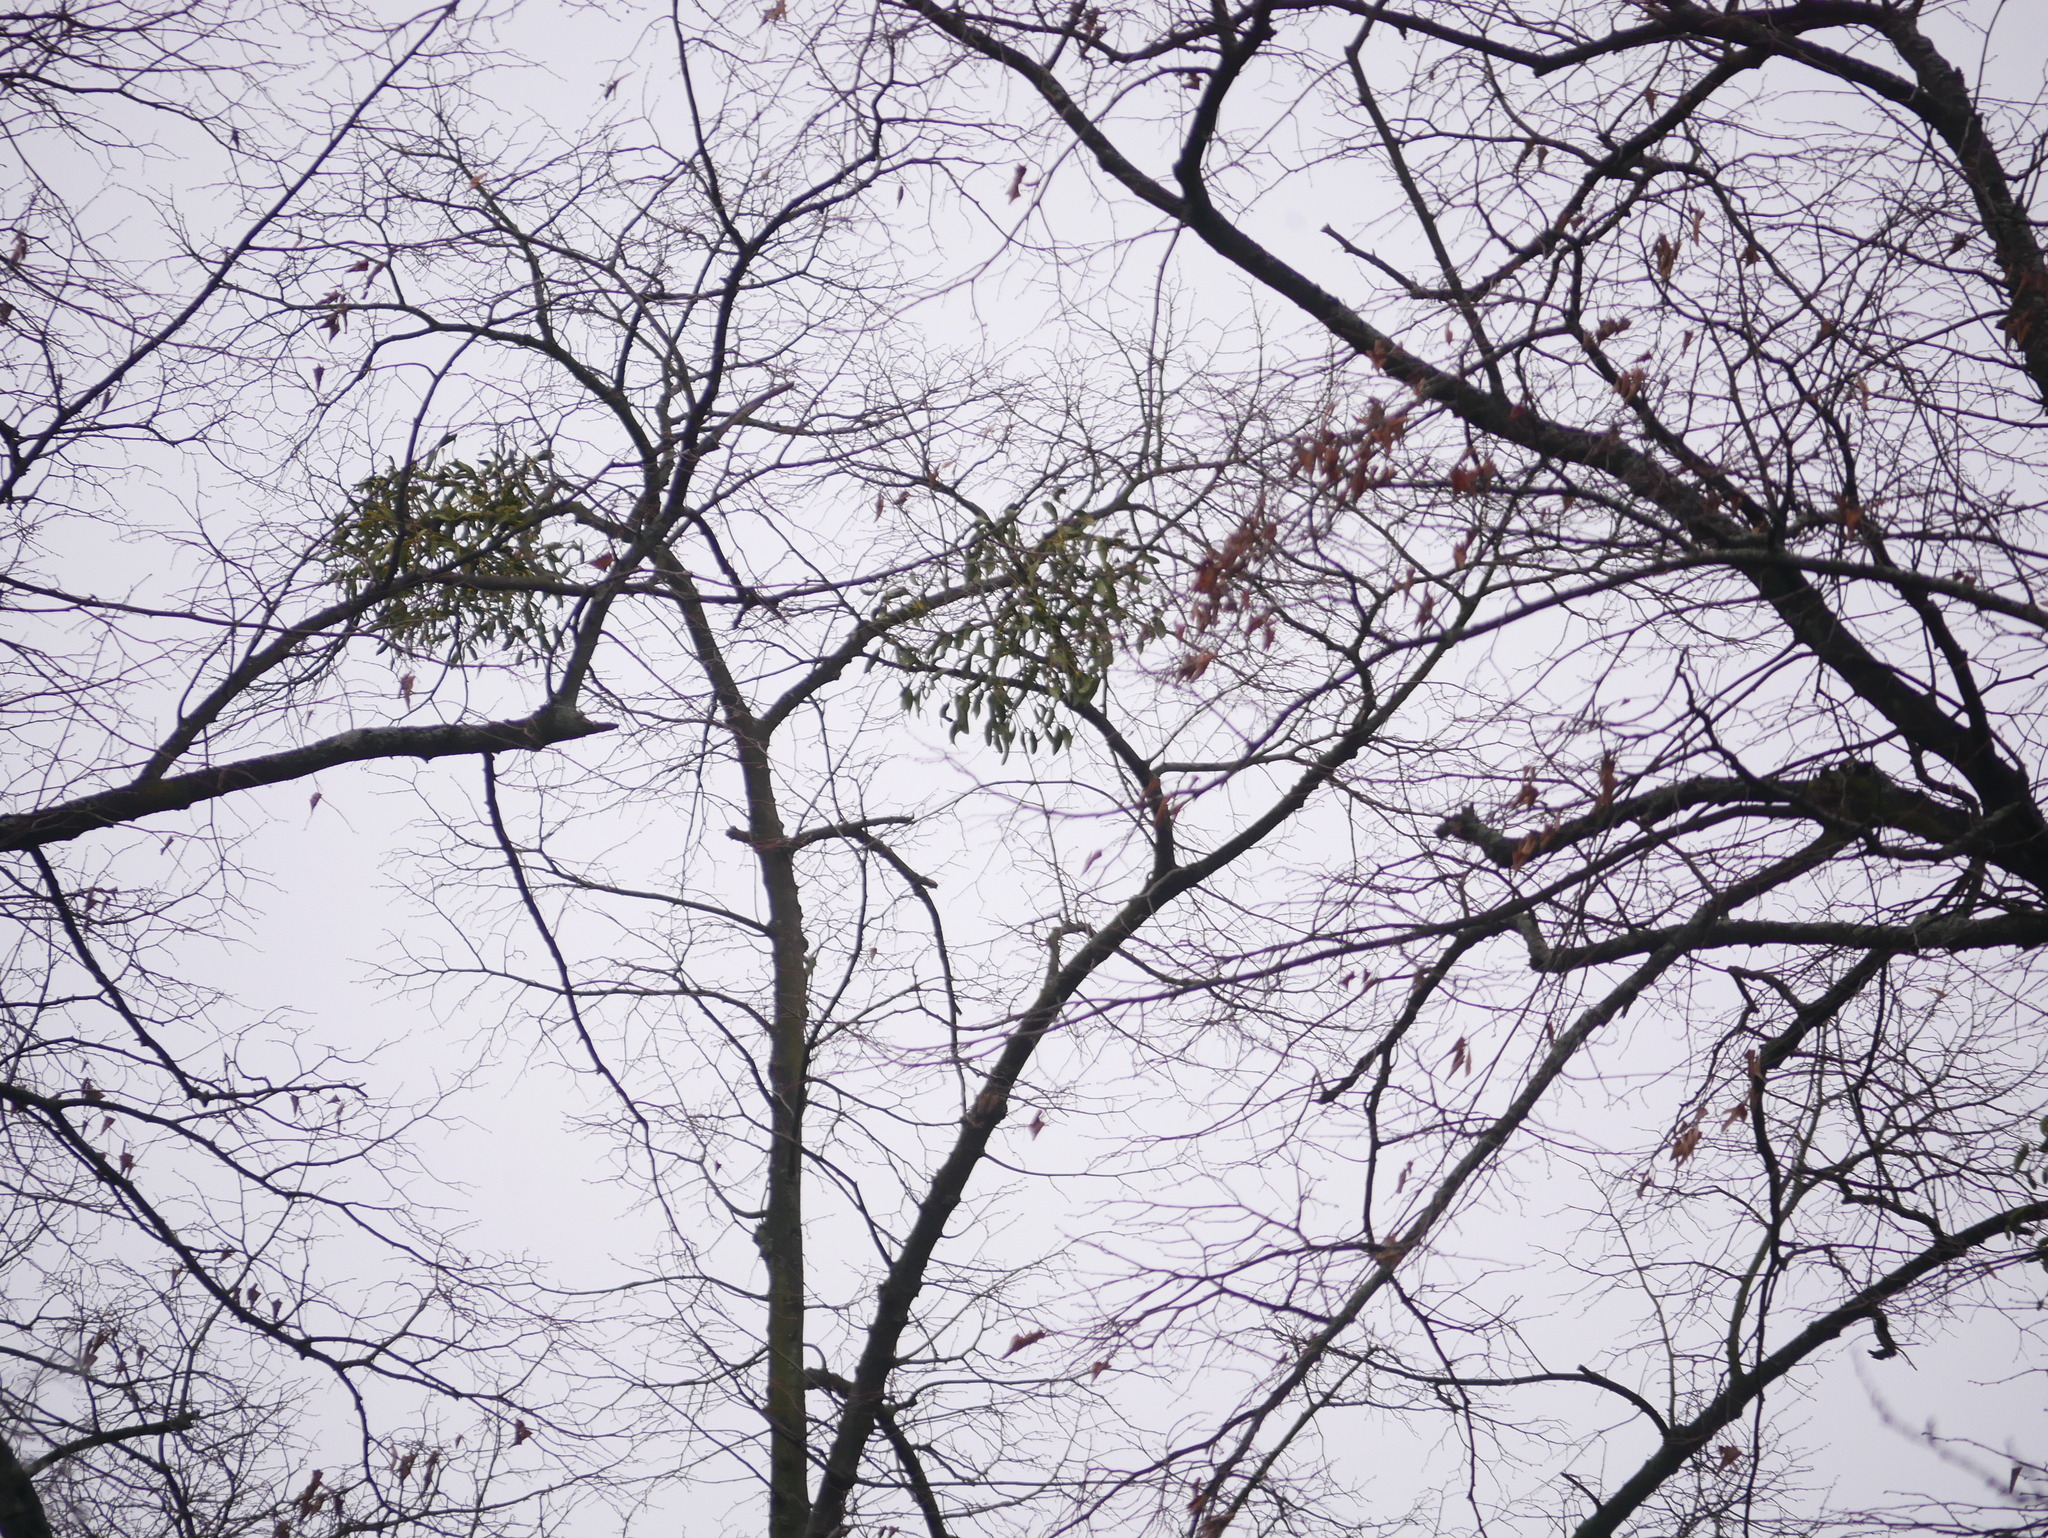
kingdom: Plantae
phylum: Tracheophyta
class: Magnoliopsida
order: Santalales
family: Viscaceae
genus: Viscum
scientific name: Viscum album
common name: Mistletoe
